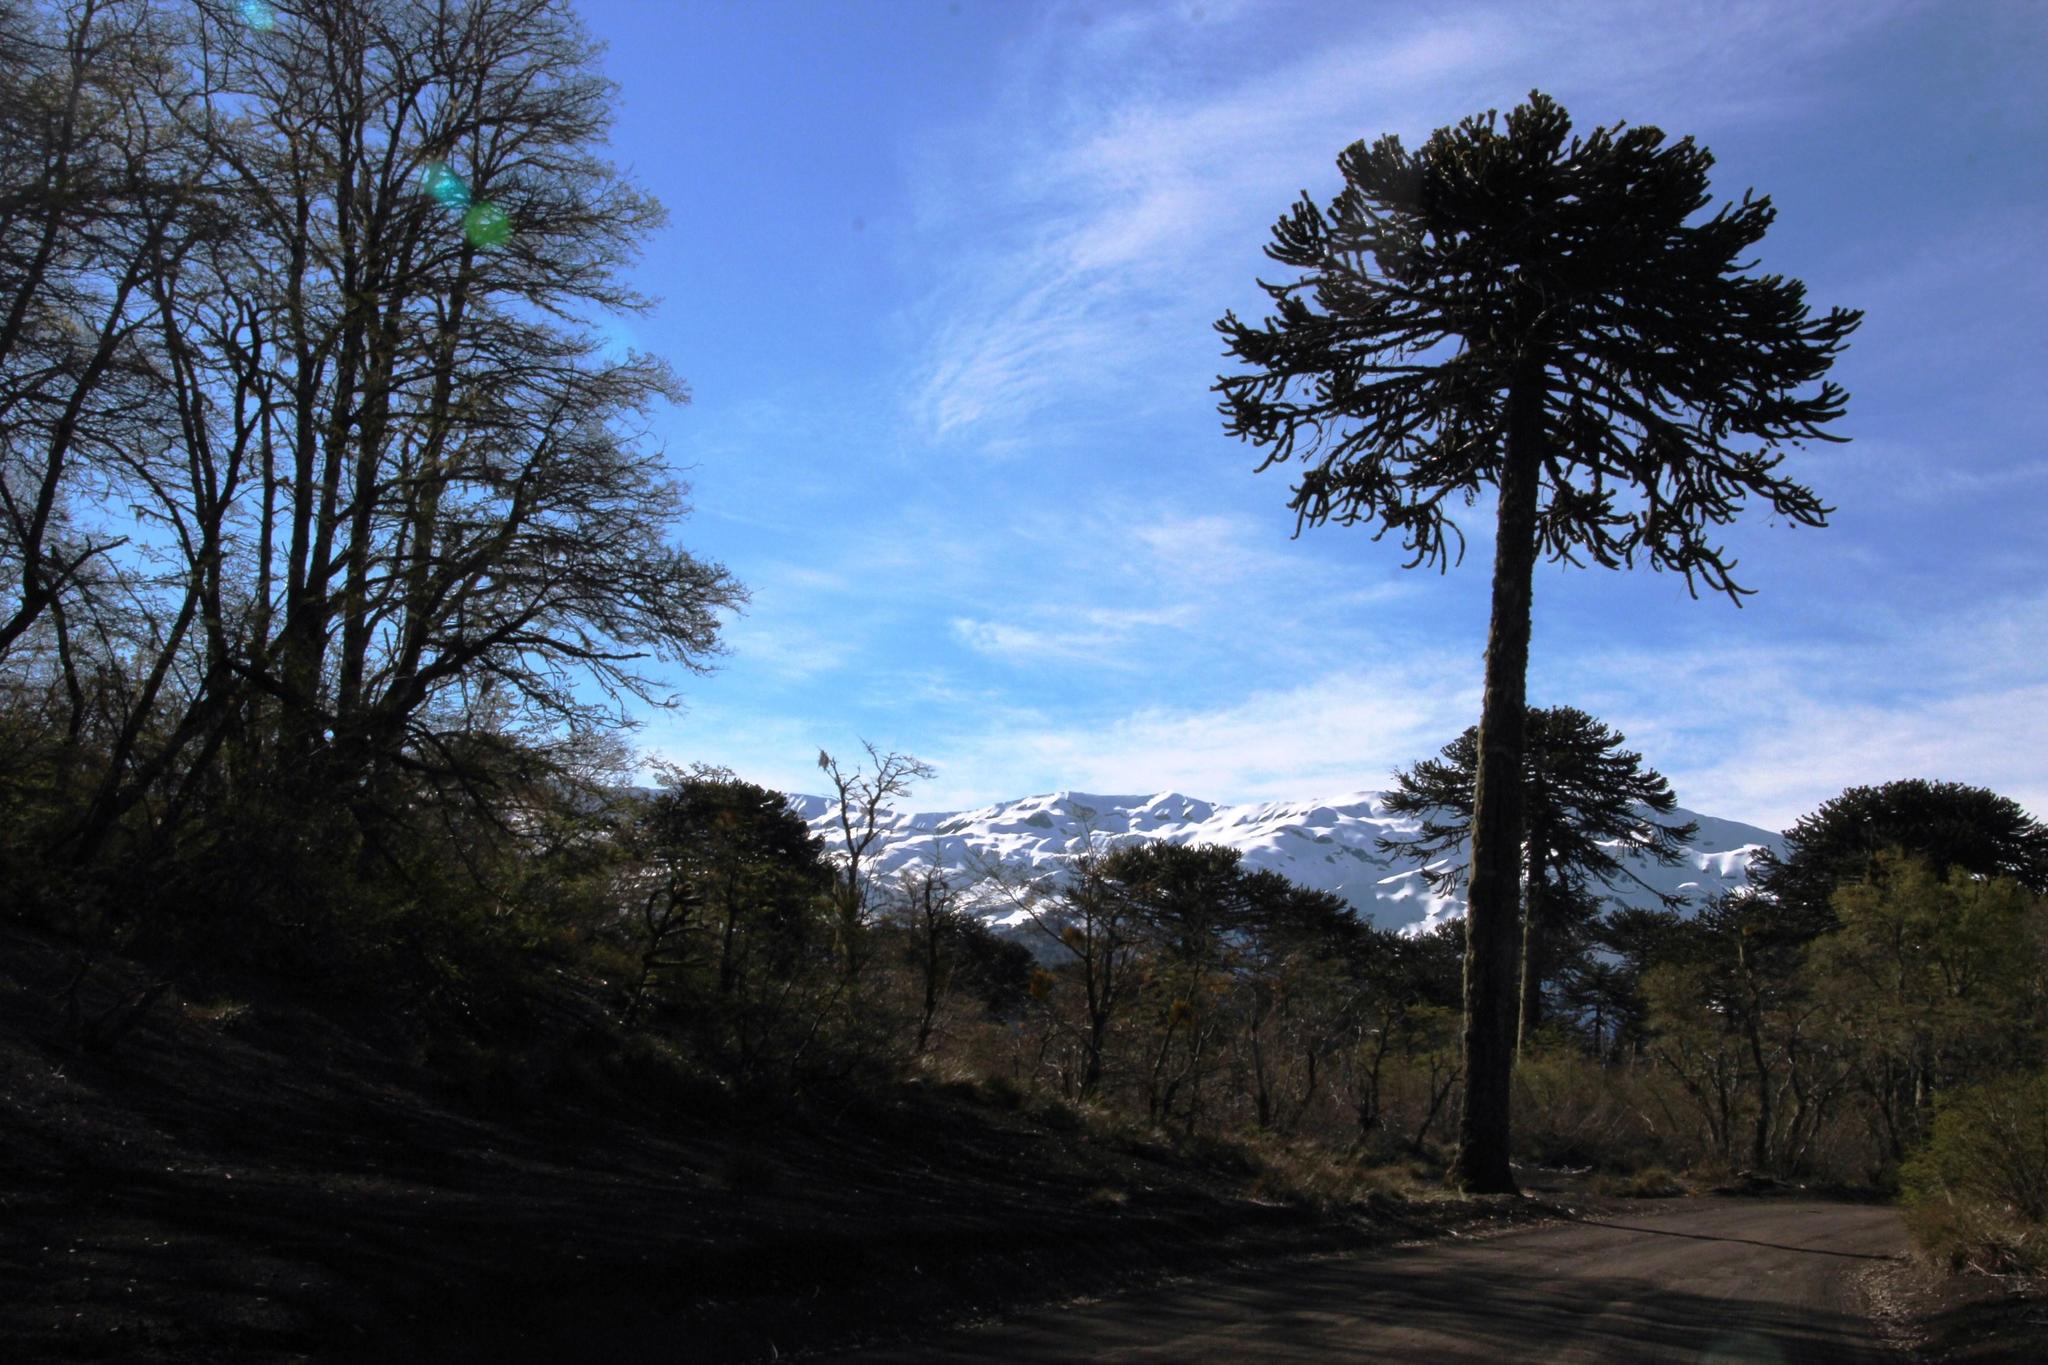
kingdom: Plantae
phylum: Tracheophyta
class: Pinopsida
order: Pinales
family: Araucariaceae
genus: Araucaria
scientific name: Araucaria araucana
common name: Monkey-puzzle
